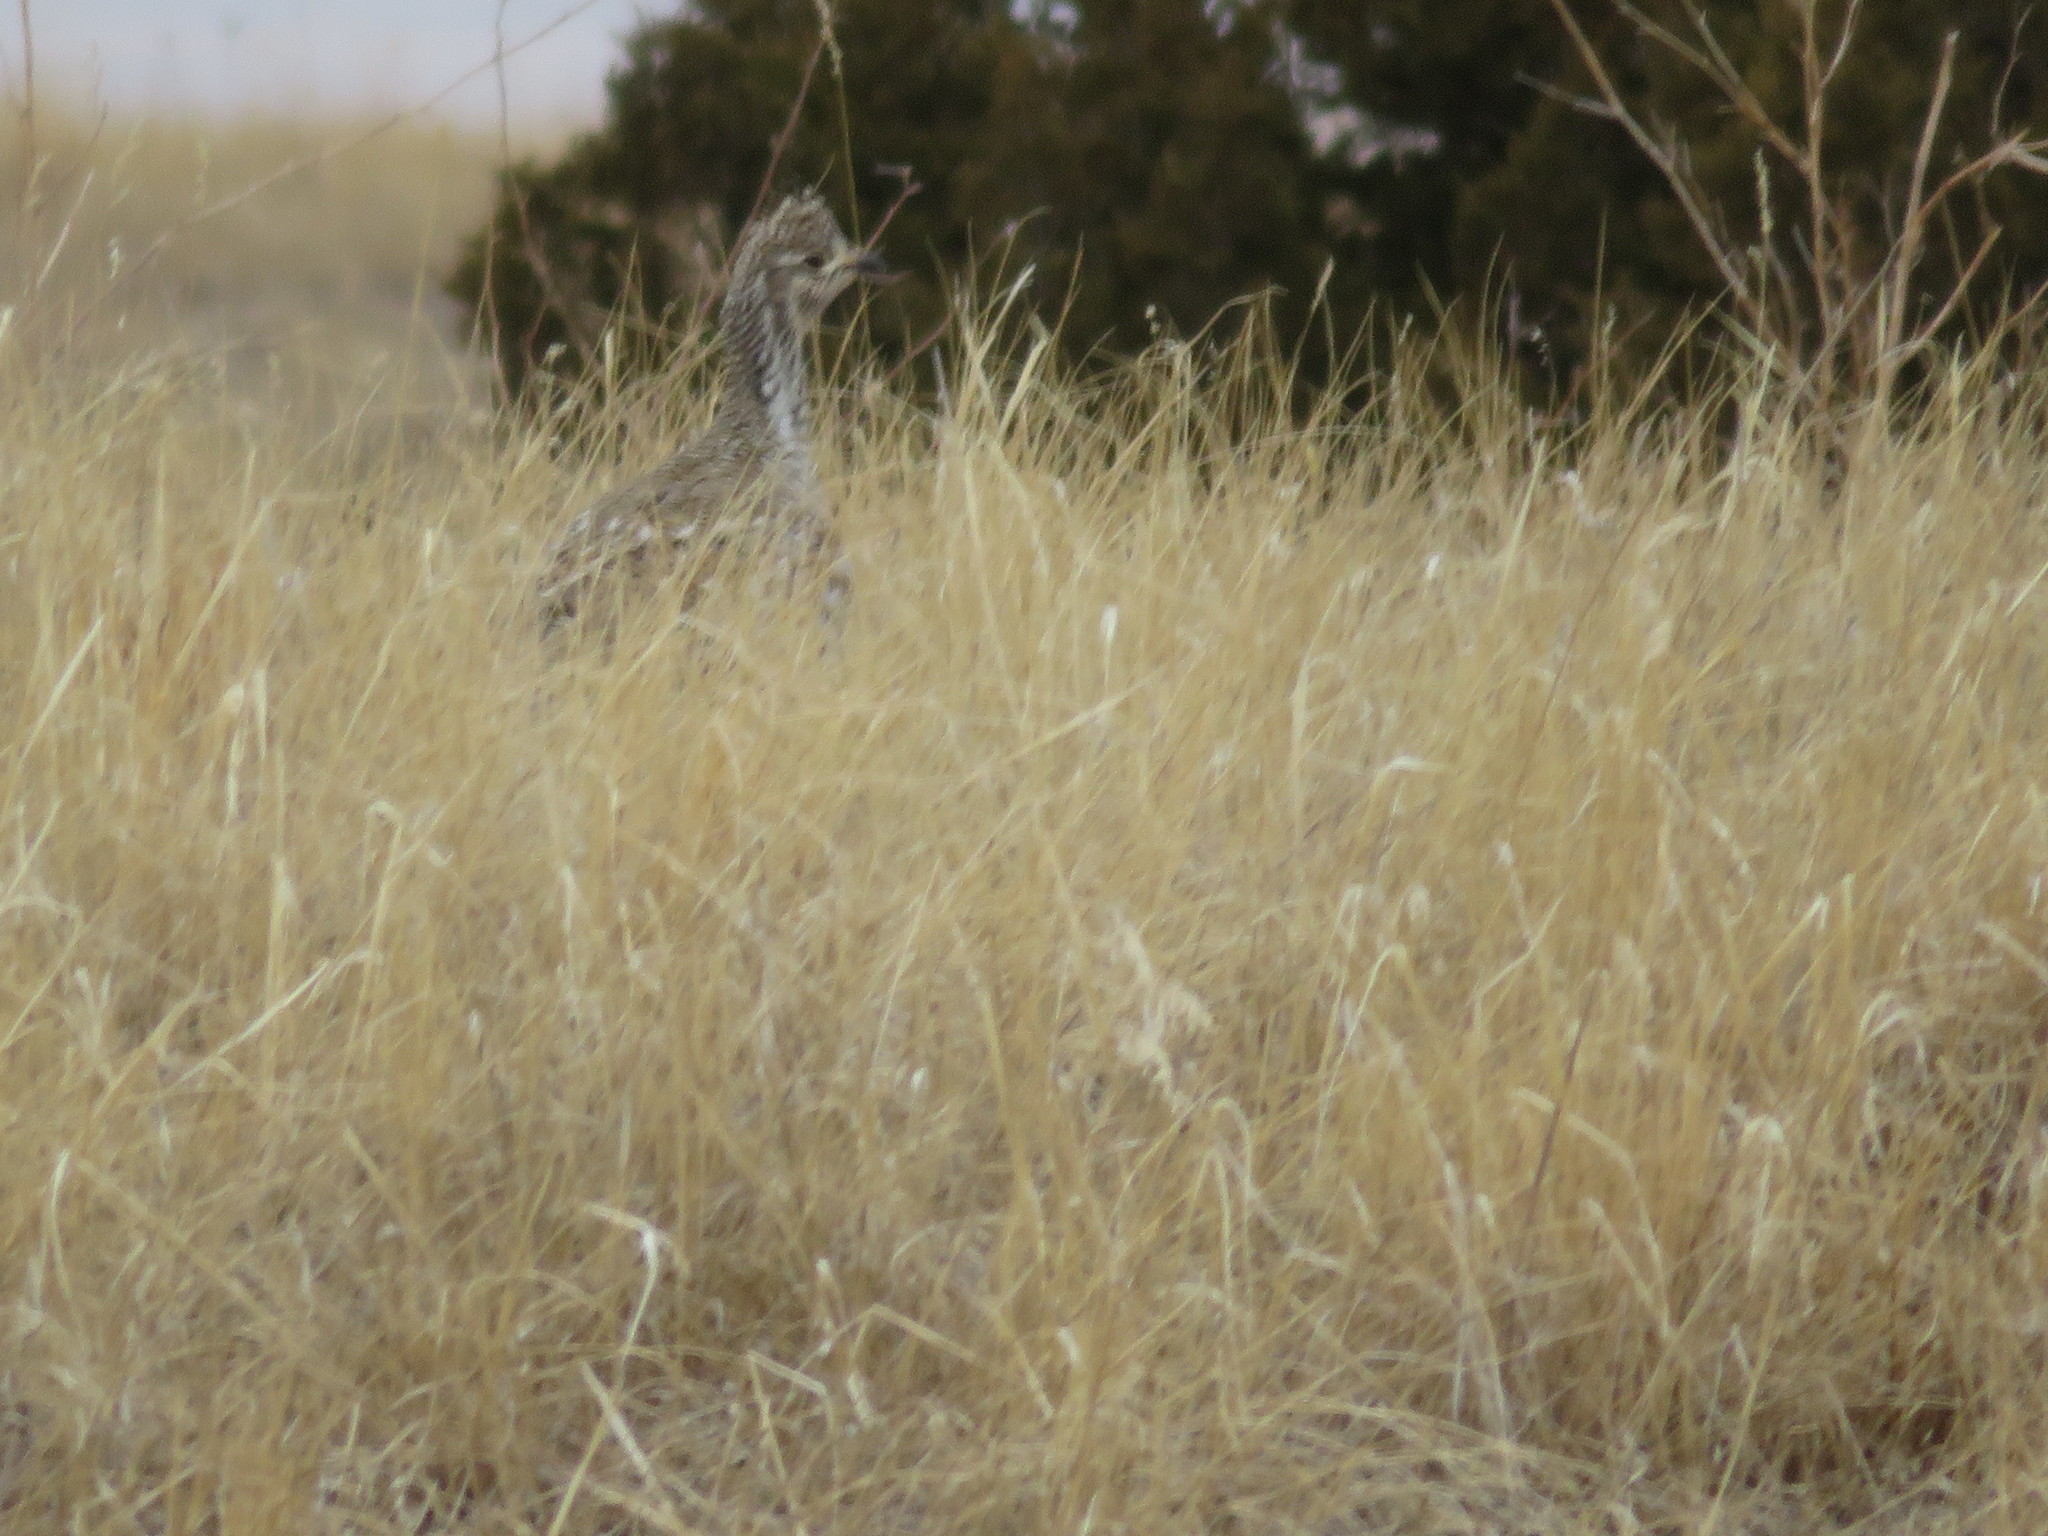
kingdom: Animalia
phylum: Chordata
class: Aves
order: Galliformes
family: Phasianidae
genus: Tympanuchus
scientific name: Tympanuchus phasianellus
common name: Sharp-tailed grouse
